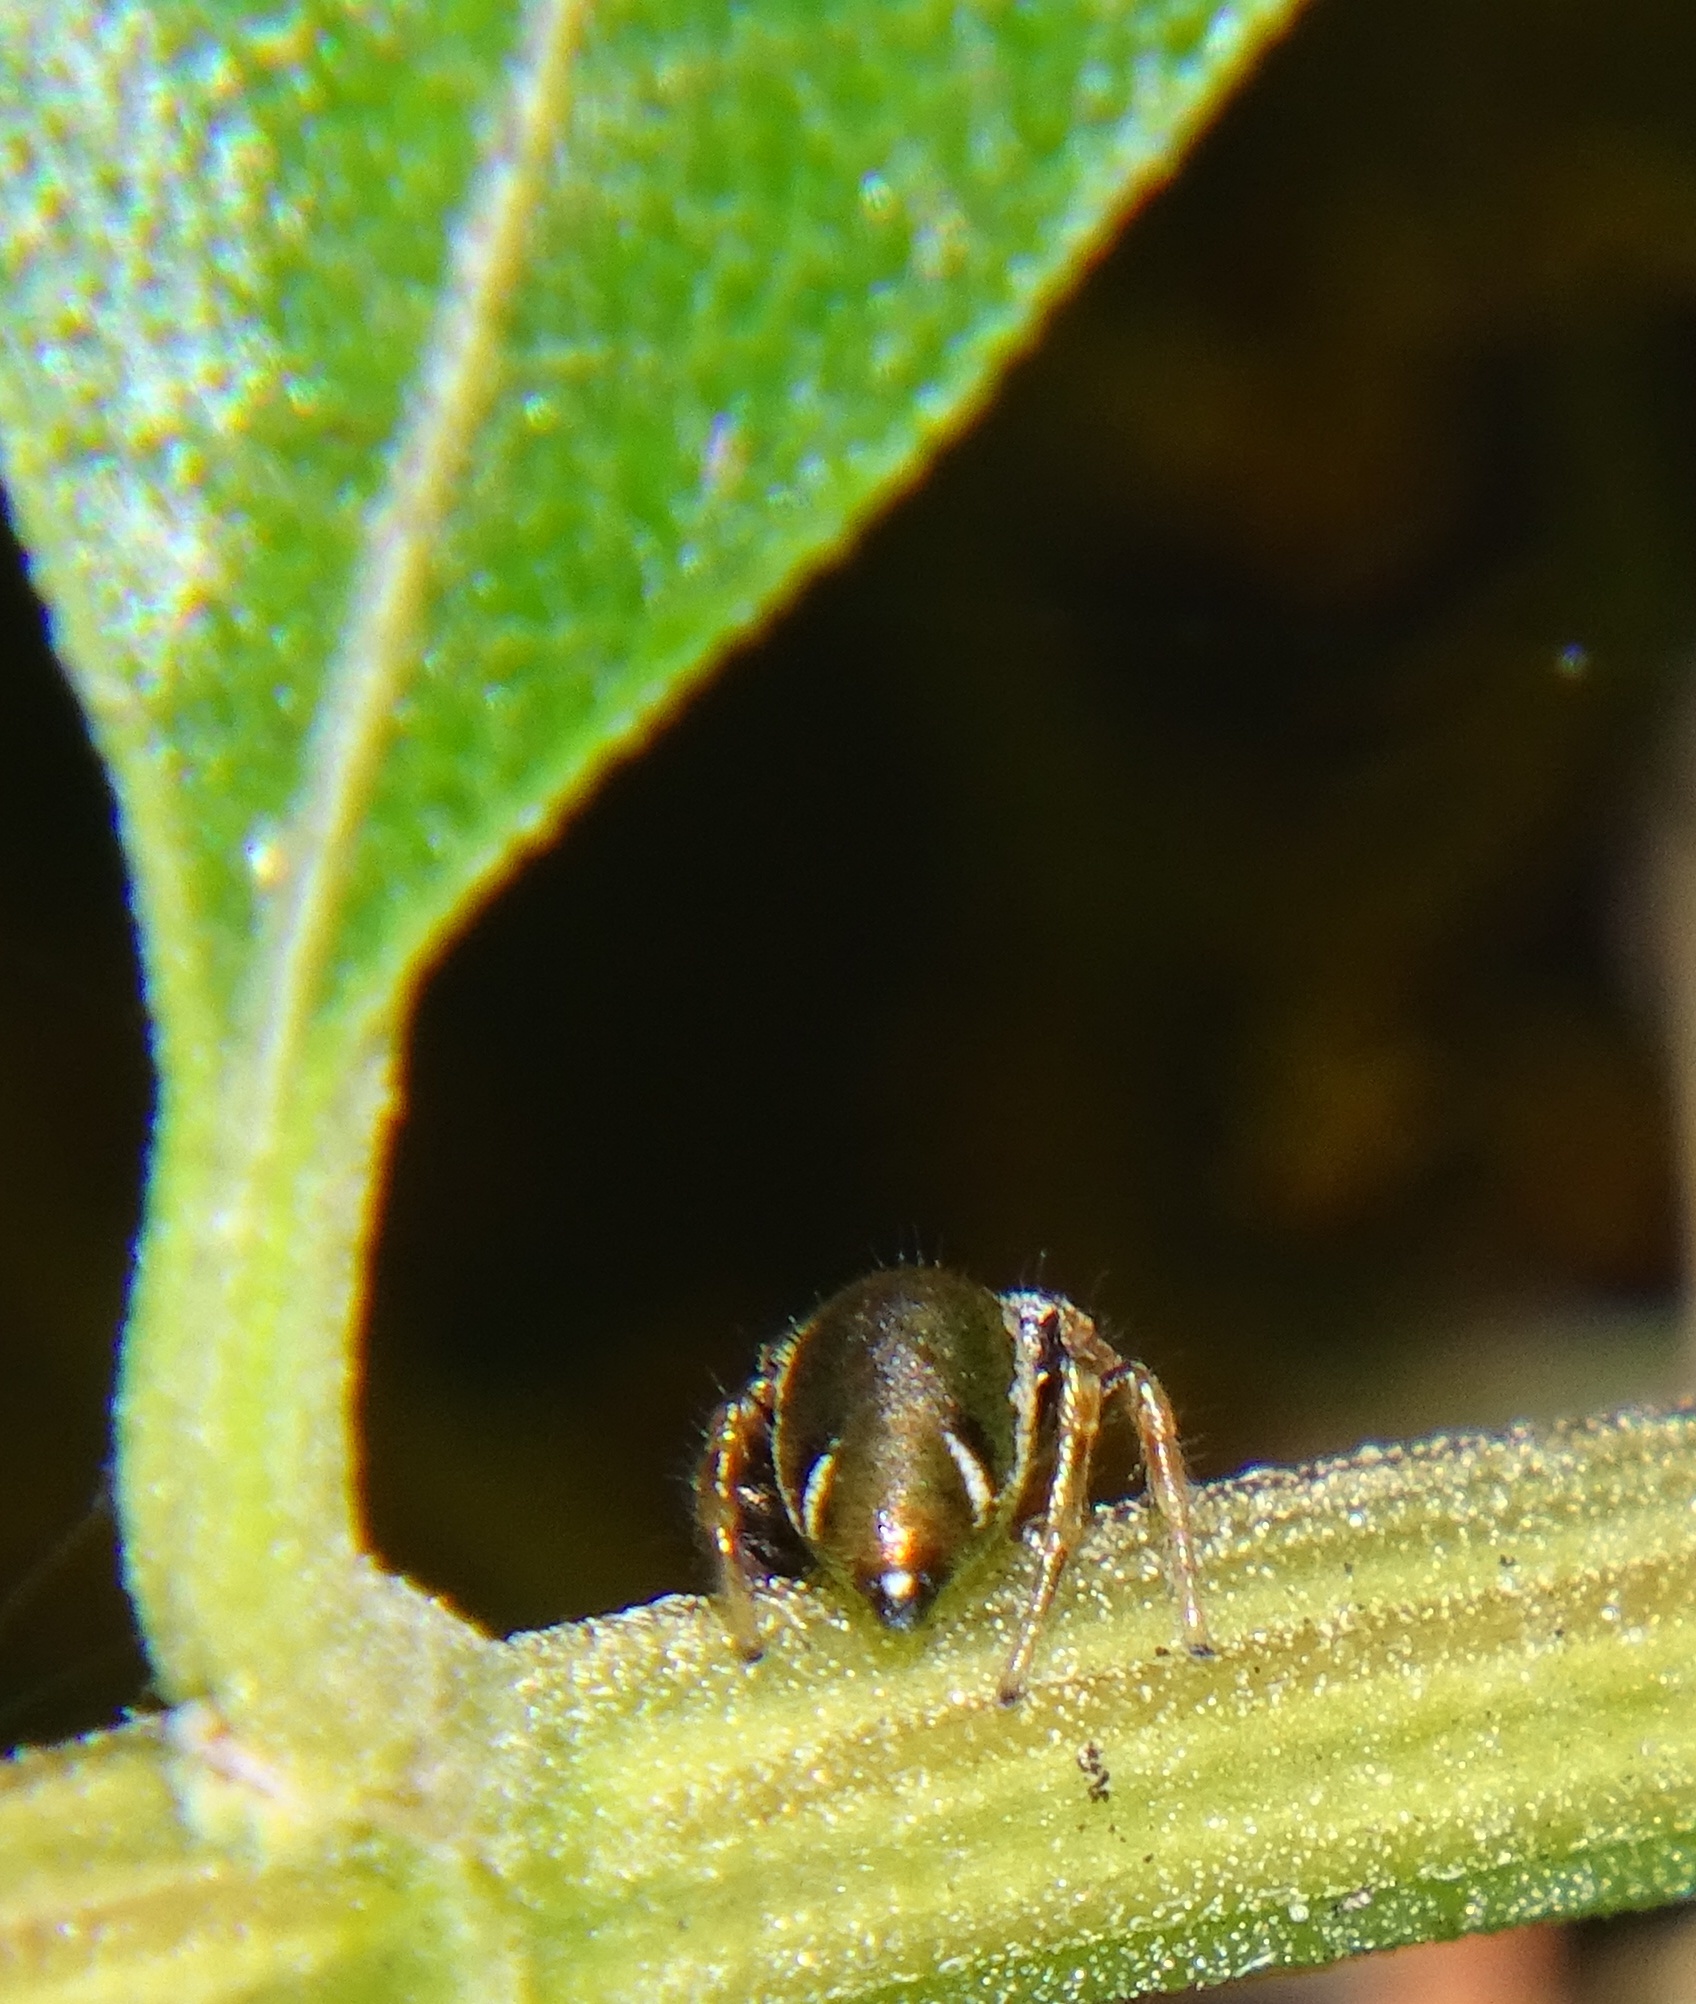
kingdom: Animalia
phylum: Arthropoda
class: Arachnida
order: Araneae
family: Salticidae
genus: Sassacus
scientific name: Sassacus vitis
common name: Jumping spiders
